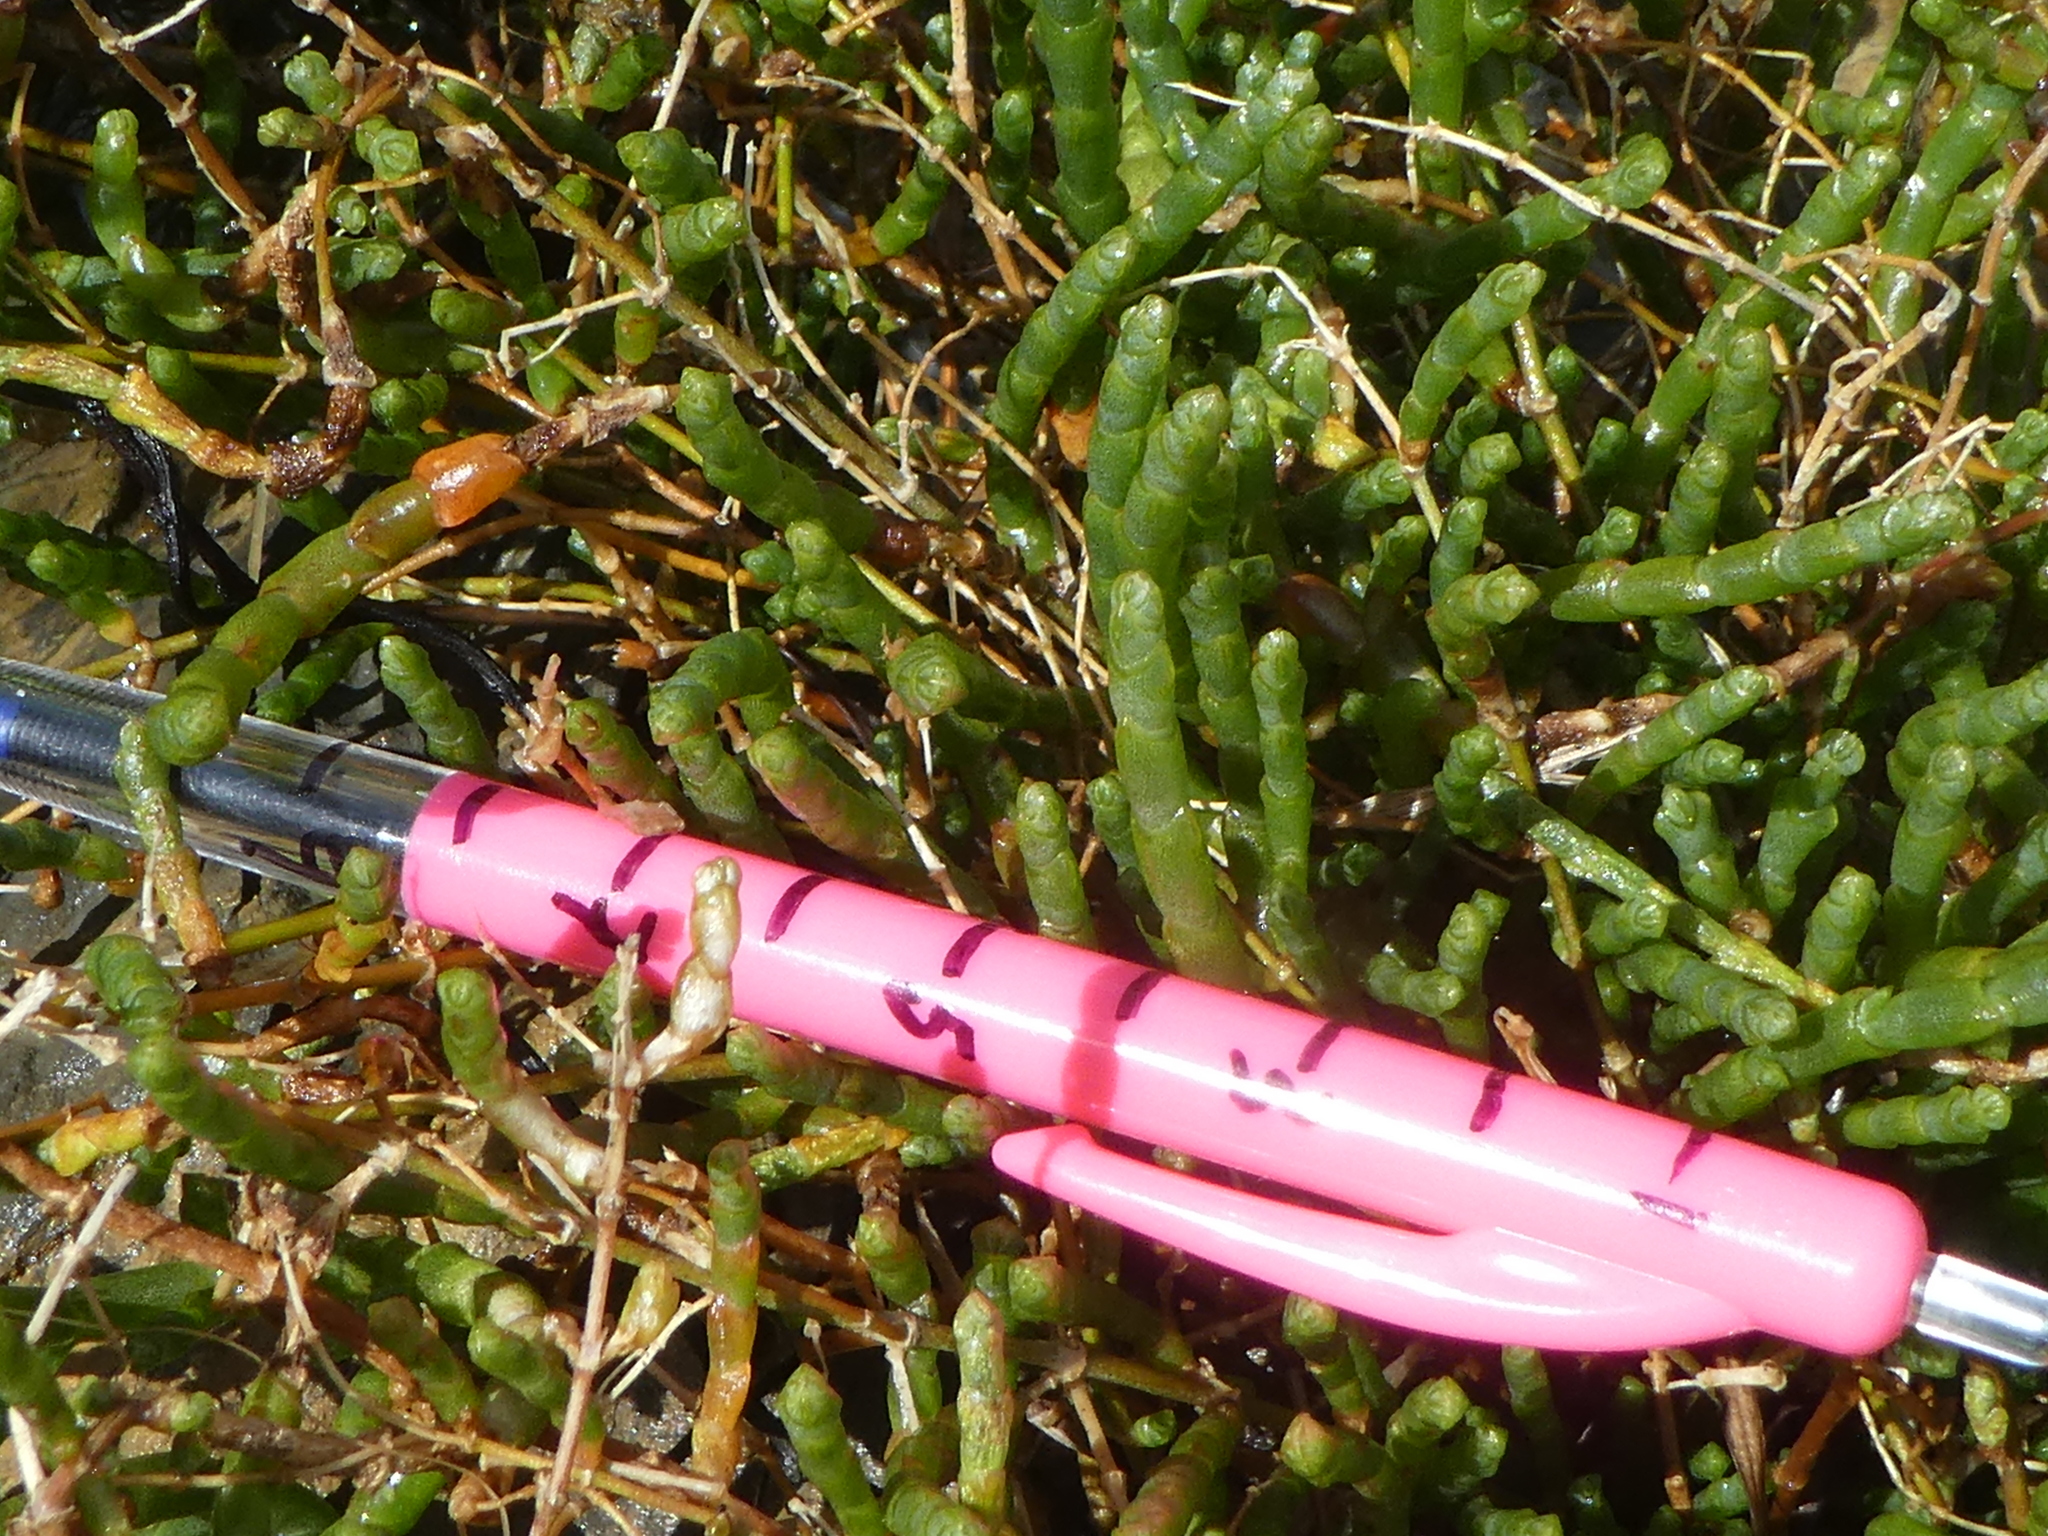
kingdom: Plantae
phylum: Tracheophyta
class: Magnoliopsida
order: Caryophyllales
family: Amaranthaceae
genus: Salicornia
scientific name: Salicornia quinqueflora
